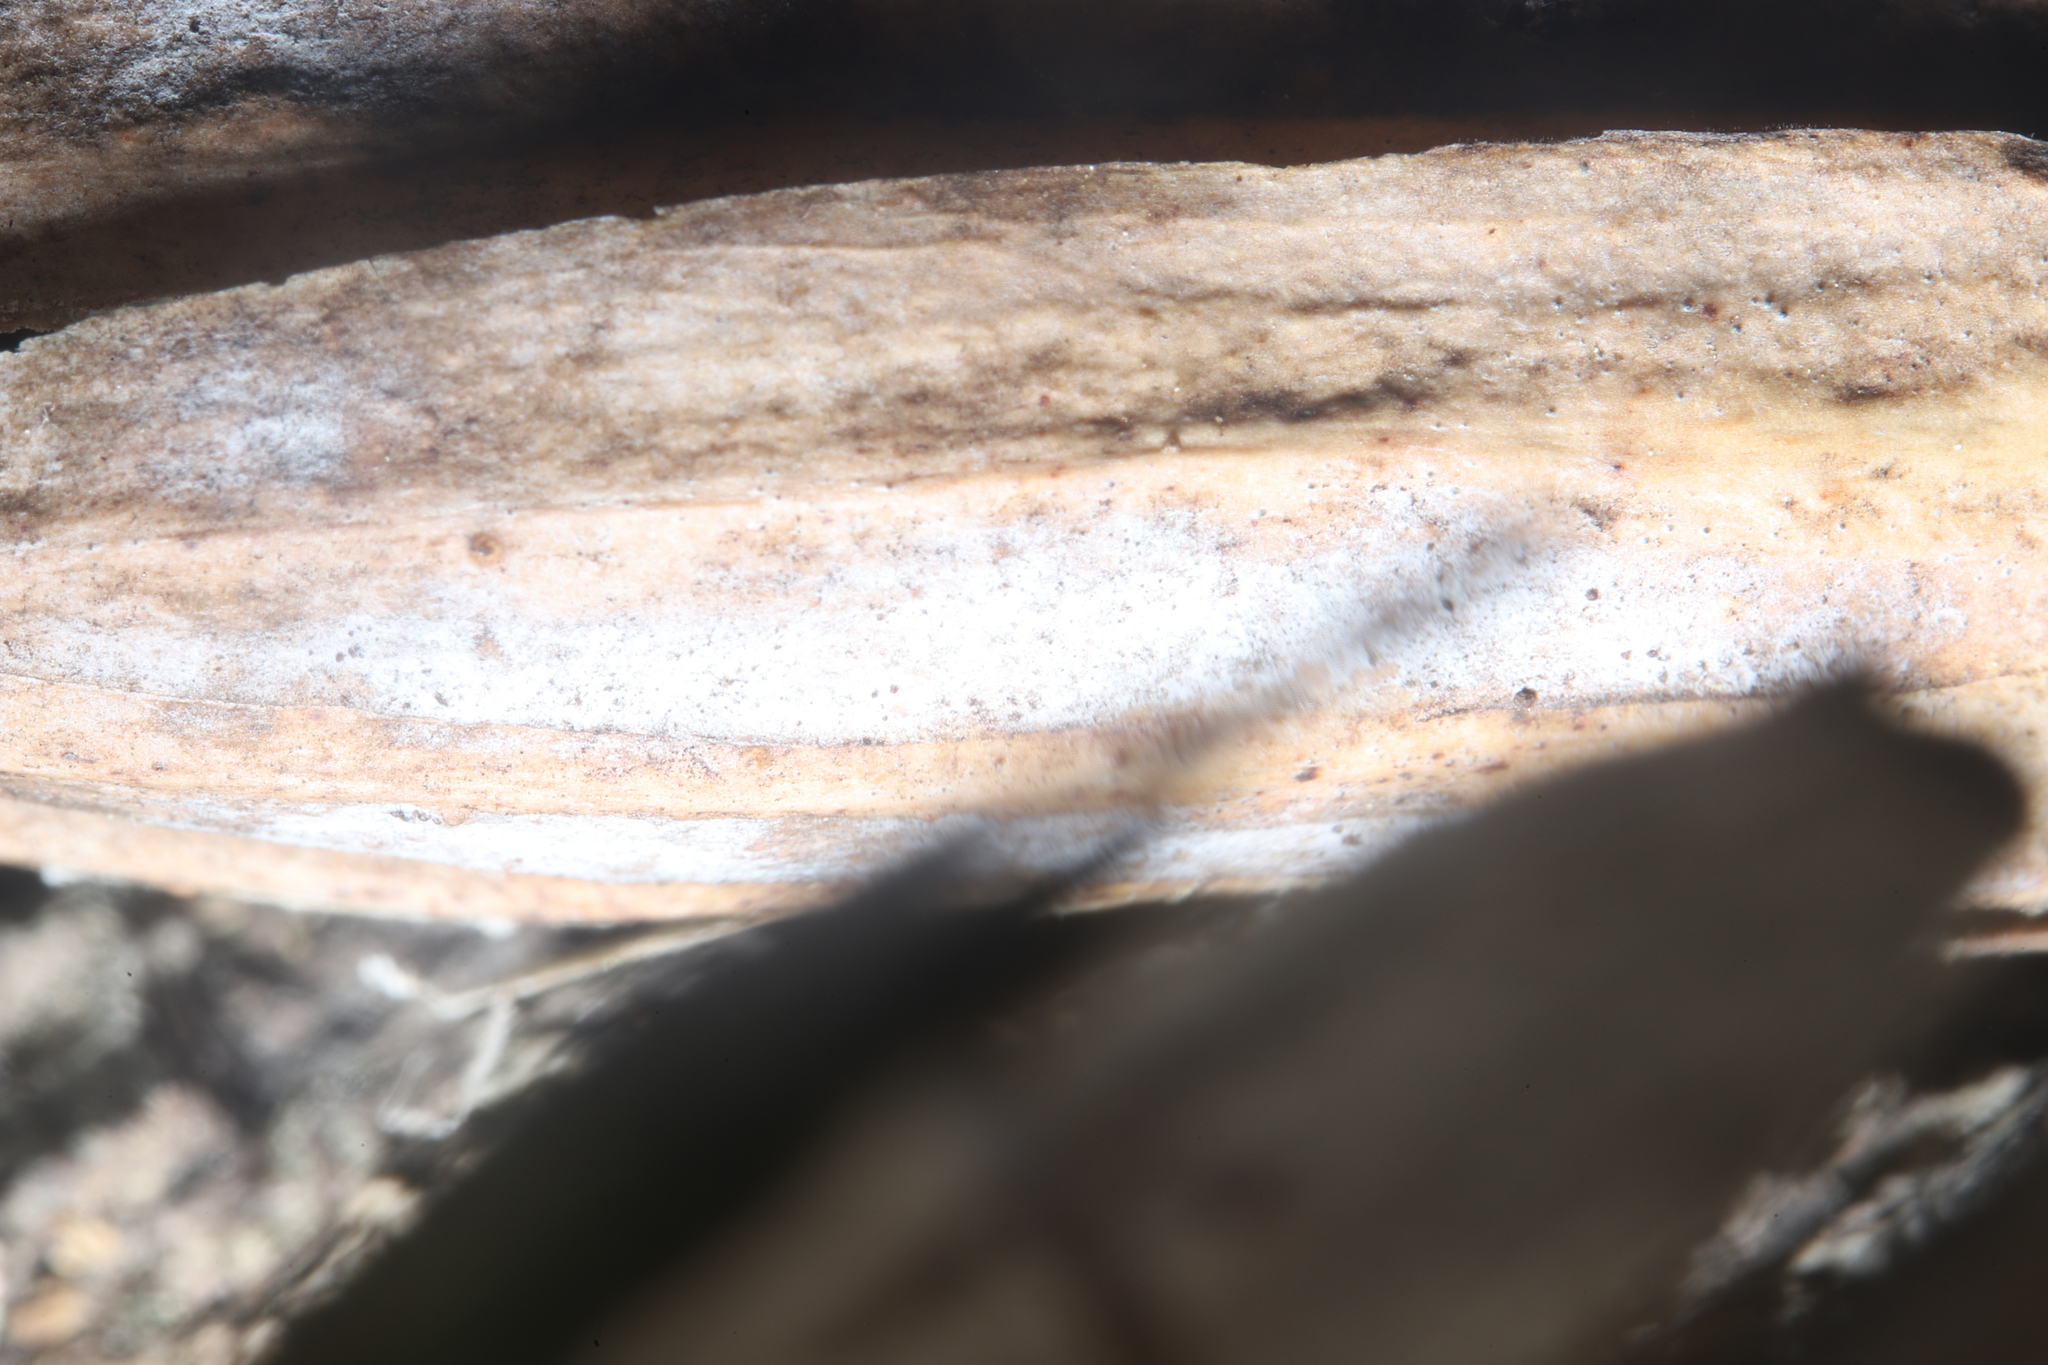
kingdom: Fungi
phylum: Ascomycota
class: Leotiomycetes
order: Helotiales
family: Erysiphaceae
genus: Erysiphe
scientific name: Erysiphe liriodendri
